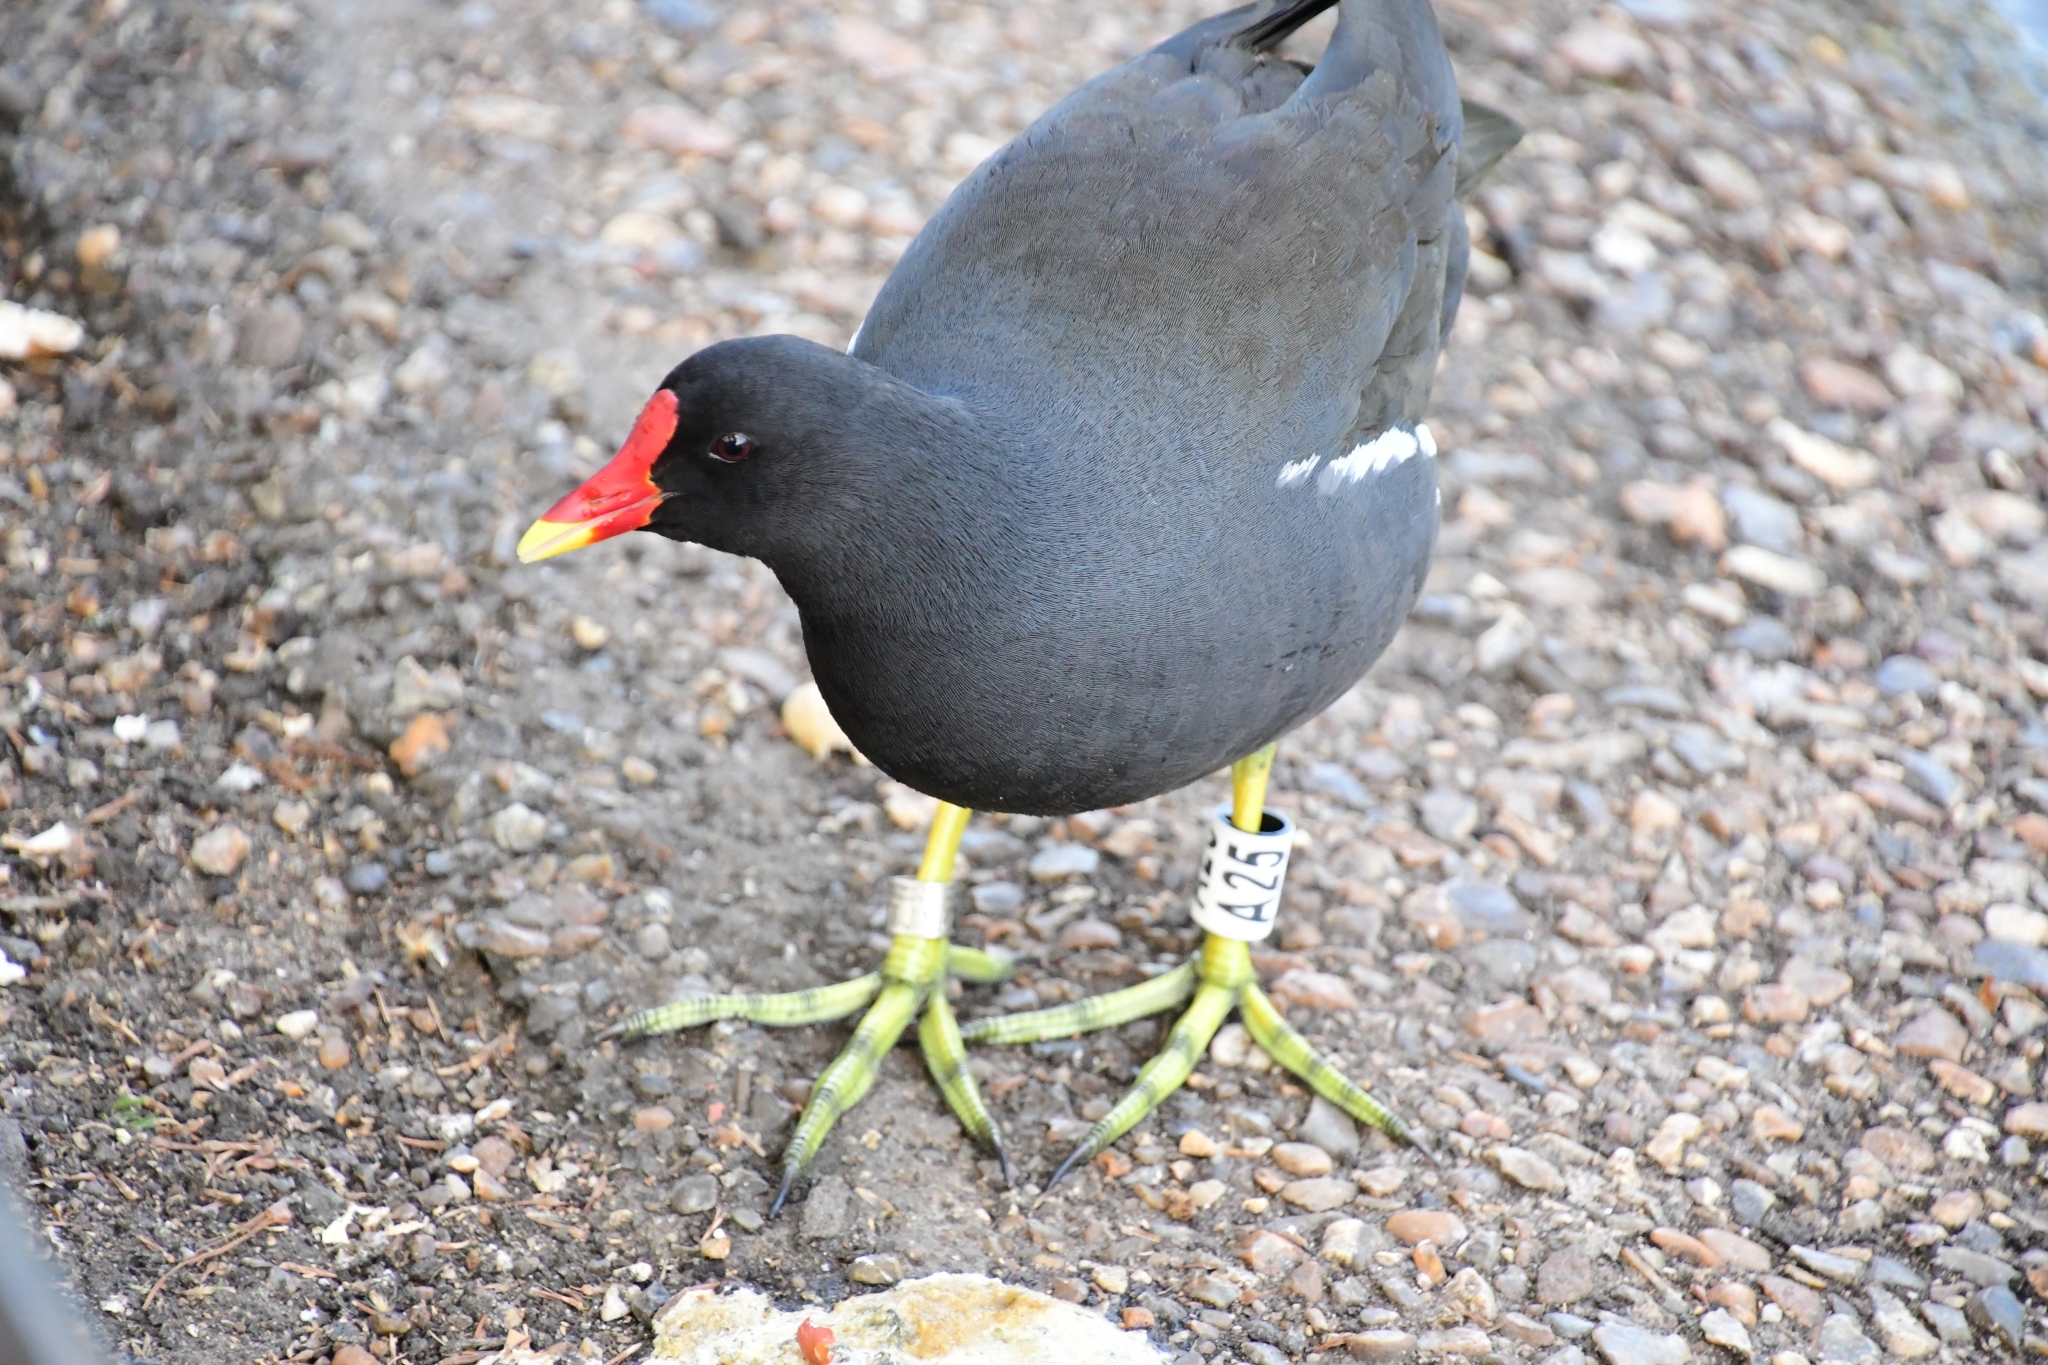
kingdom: Animalia
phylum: Chordata
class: Aves
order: Gruiformes
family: Rallidae
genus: Gallinula
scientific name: Gallinula chloropus
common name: Common moorhen
